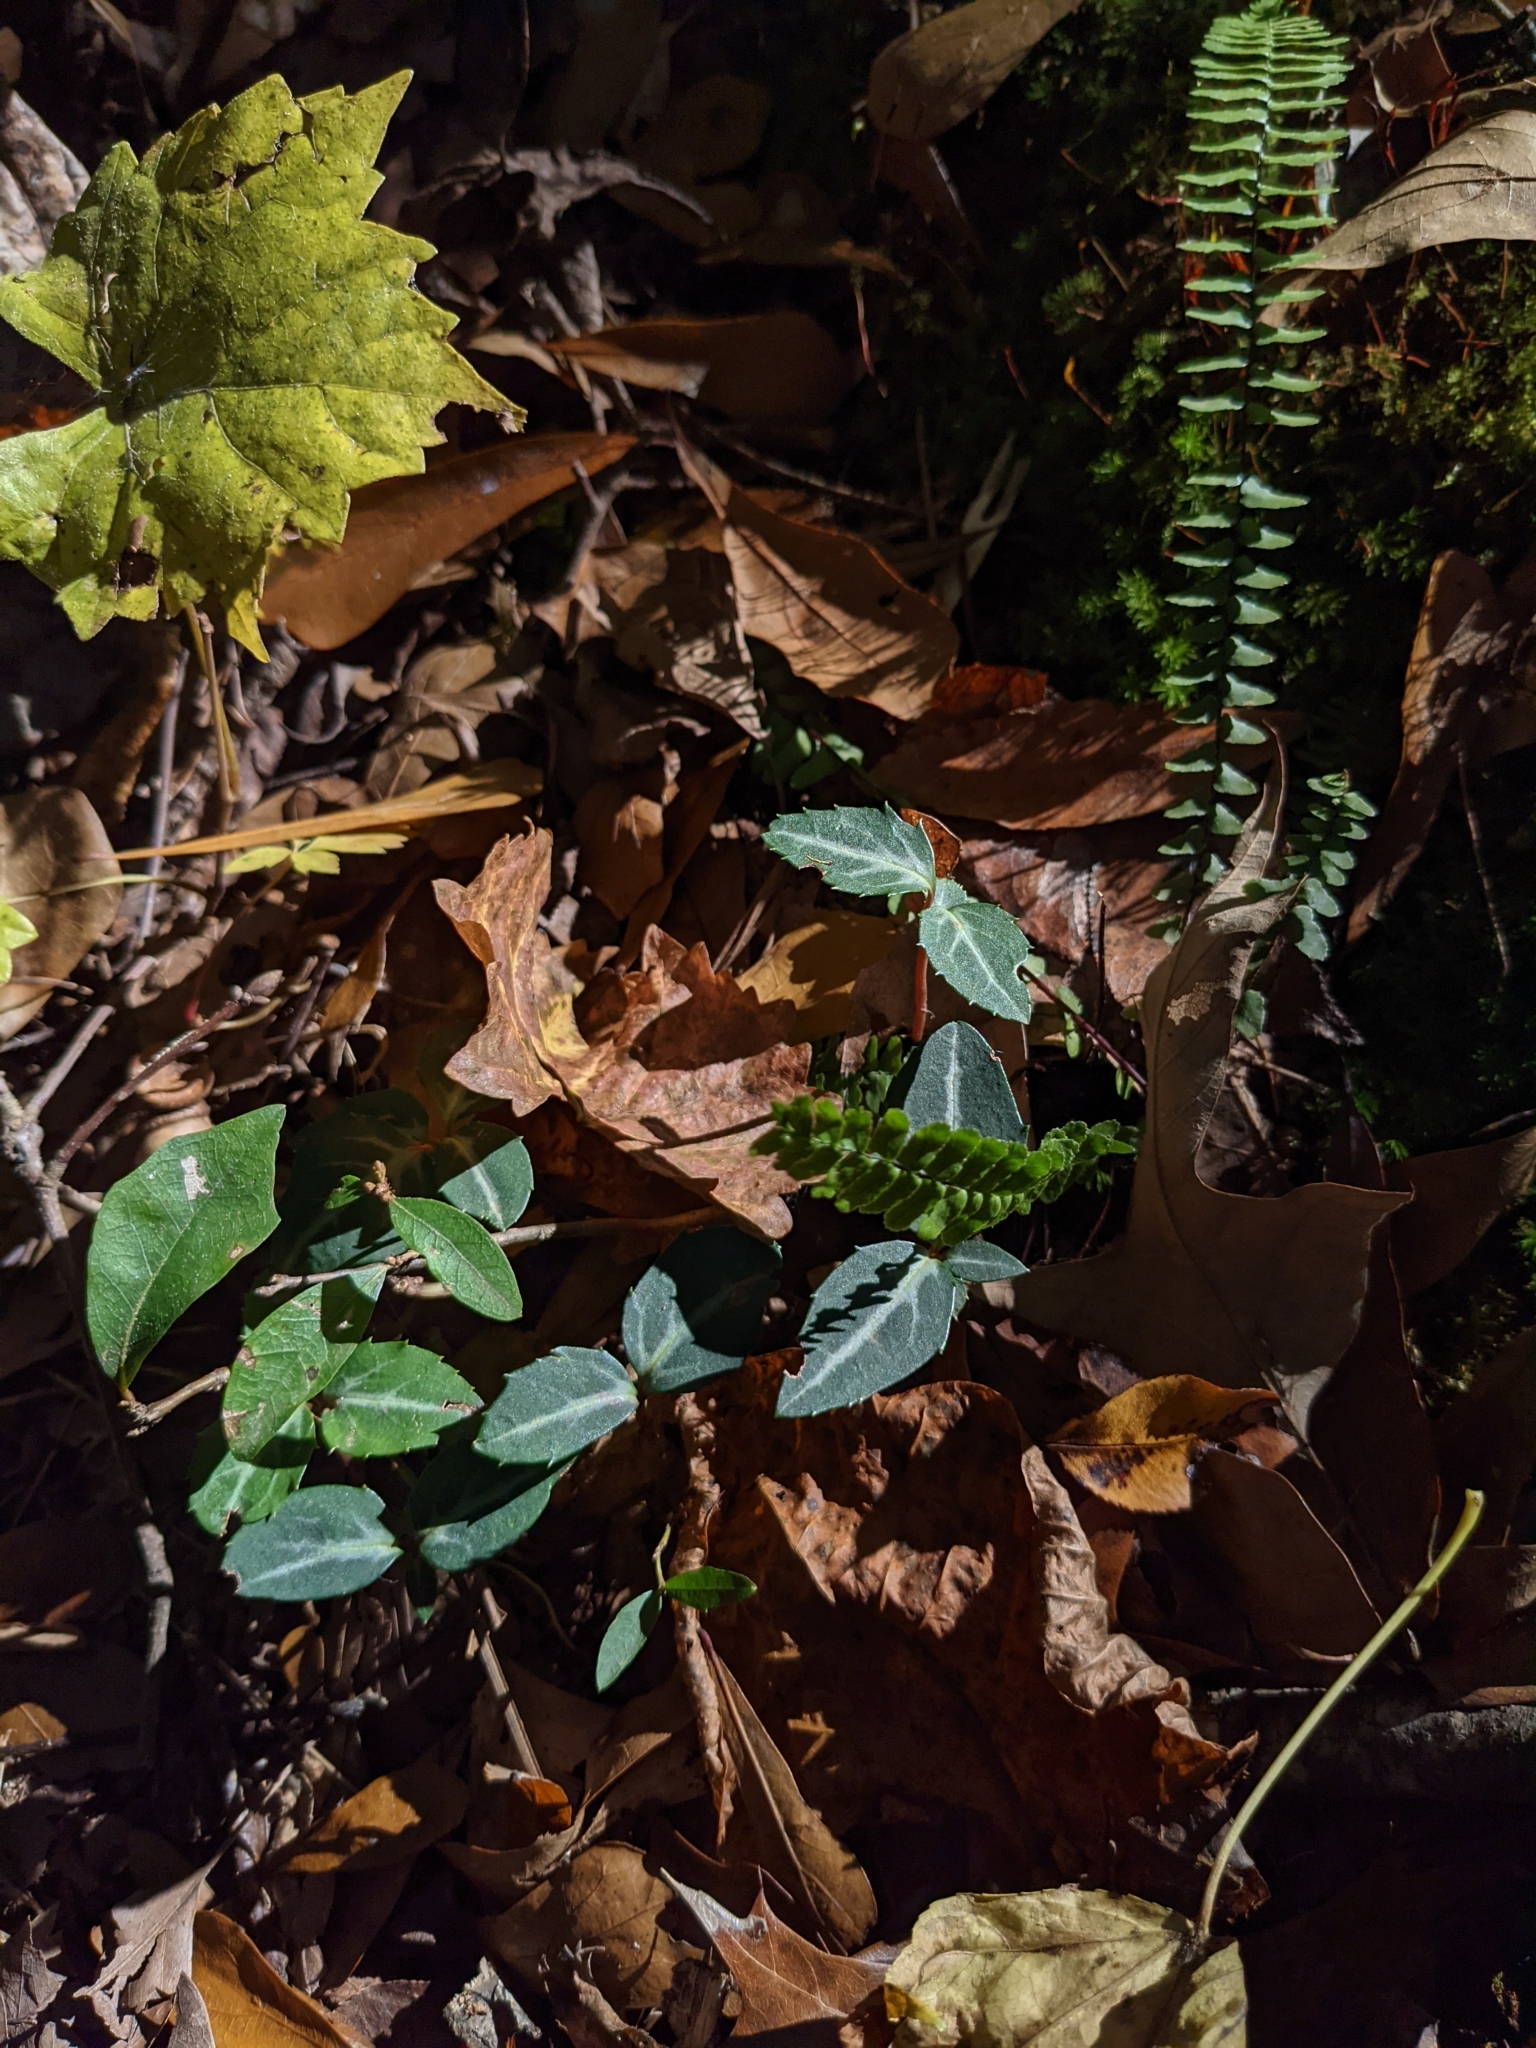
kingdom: Plantae
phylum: Tracheophyta
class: Magnoliopsida
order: Ericales
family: Ericaceae
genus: Chimaphila
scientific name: Chimaphila maculata
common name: Spotted pipsissewa
